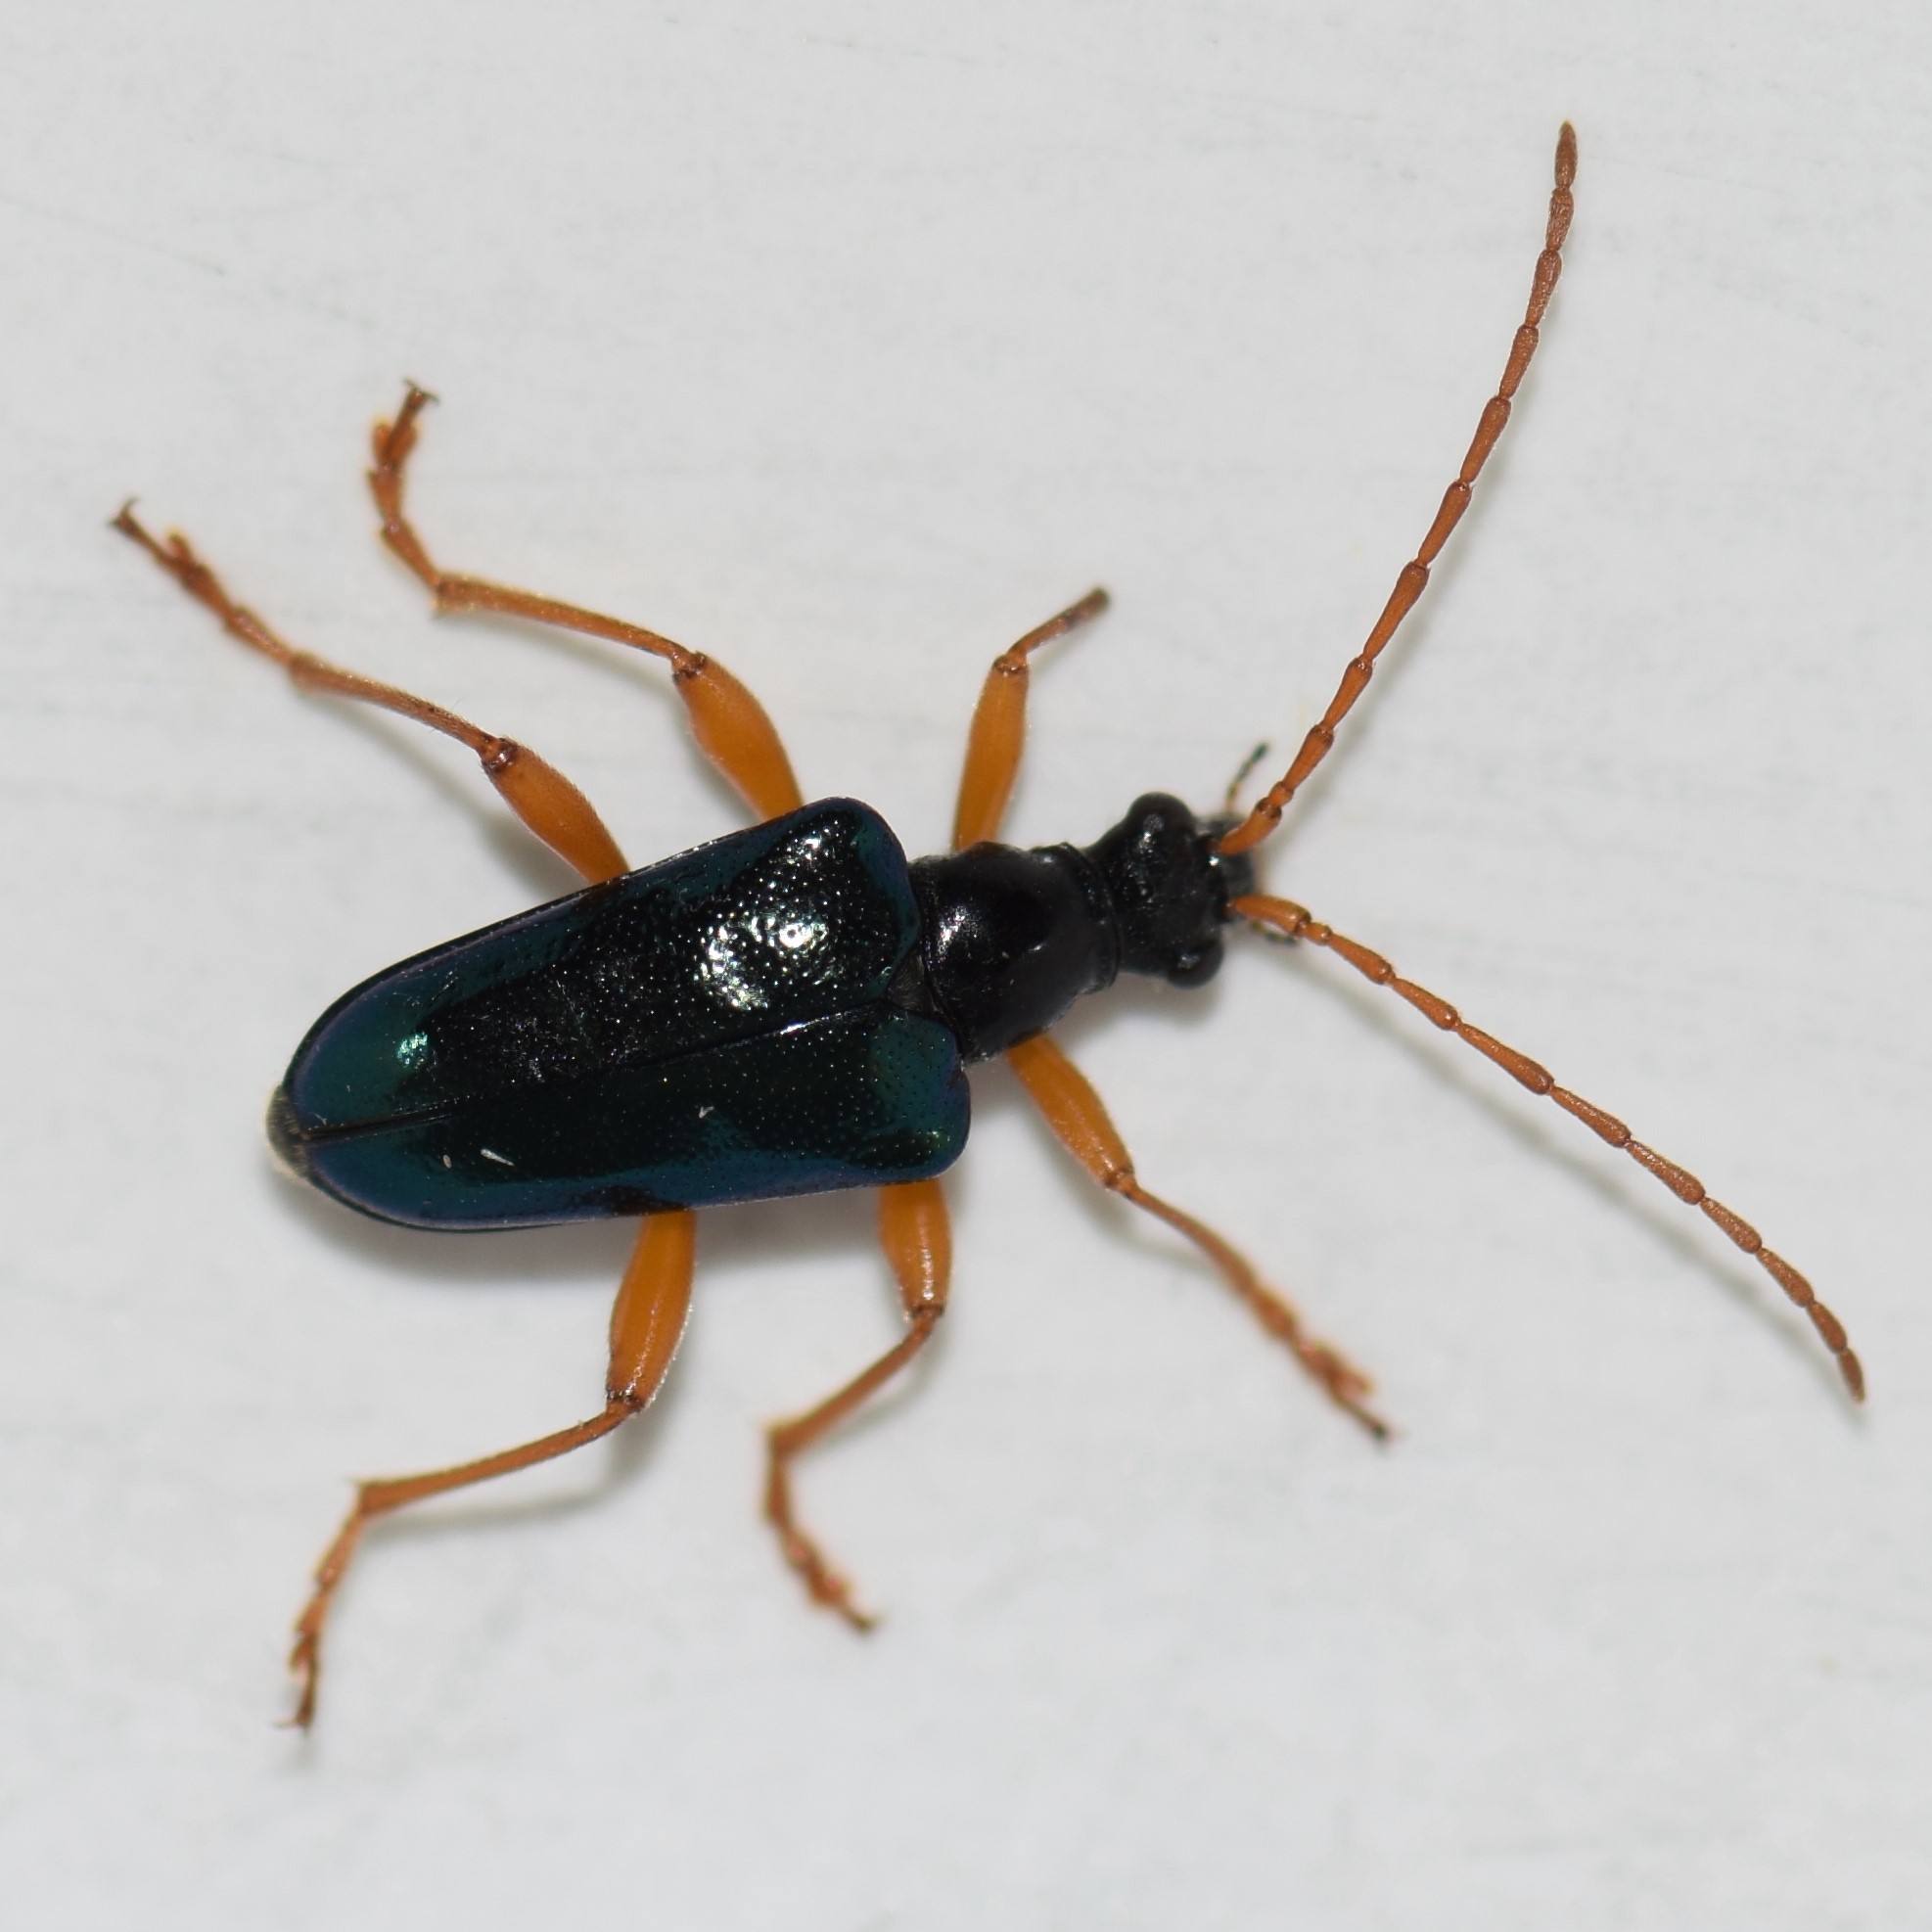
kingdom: Animalia
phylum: Arthropoda
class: Insecta
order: Coleoptera
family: Cerambycidae
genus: Gaurotes
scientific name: Gaurotes cyanipennis
